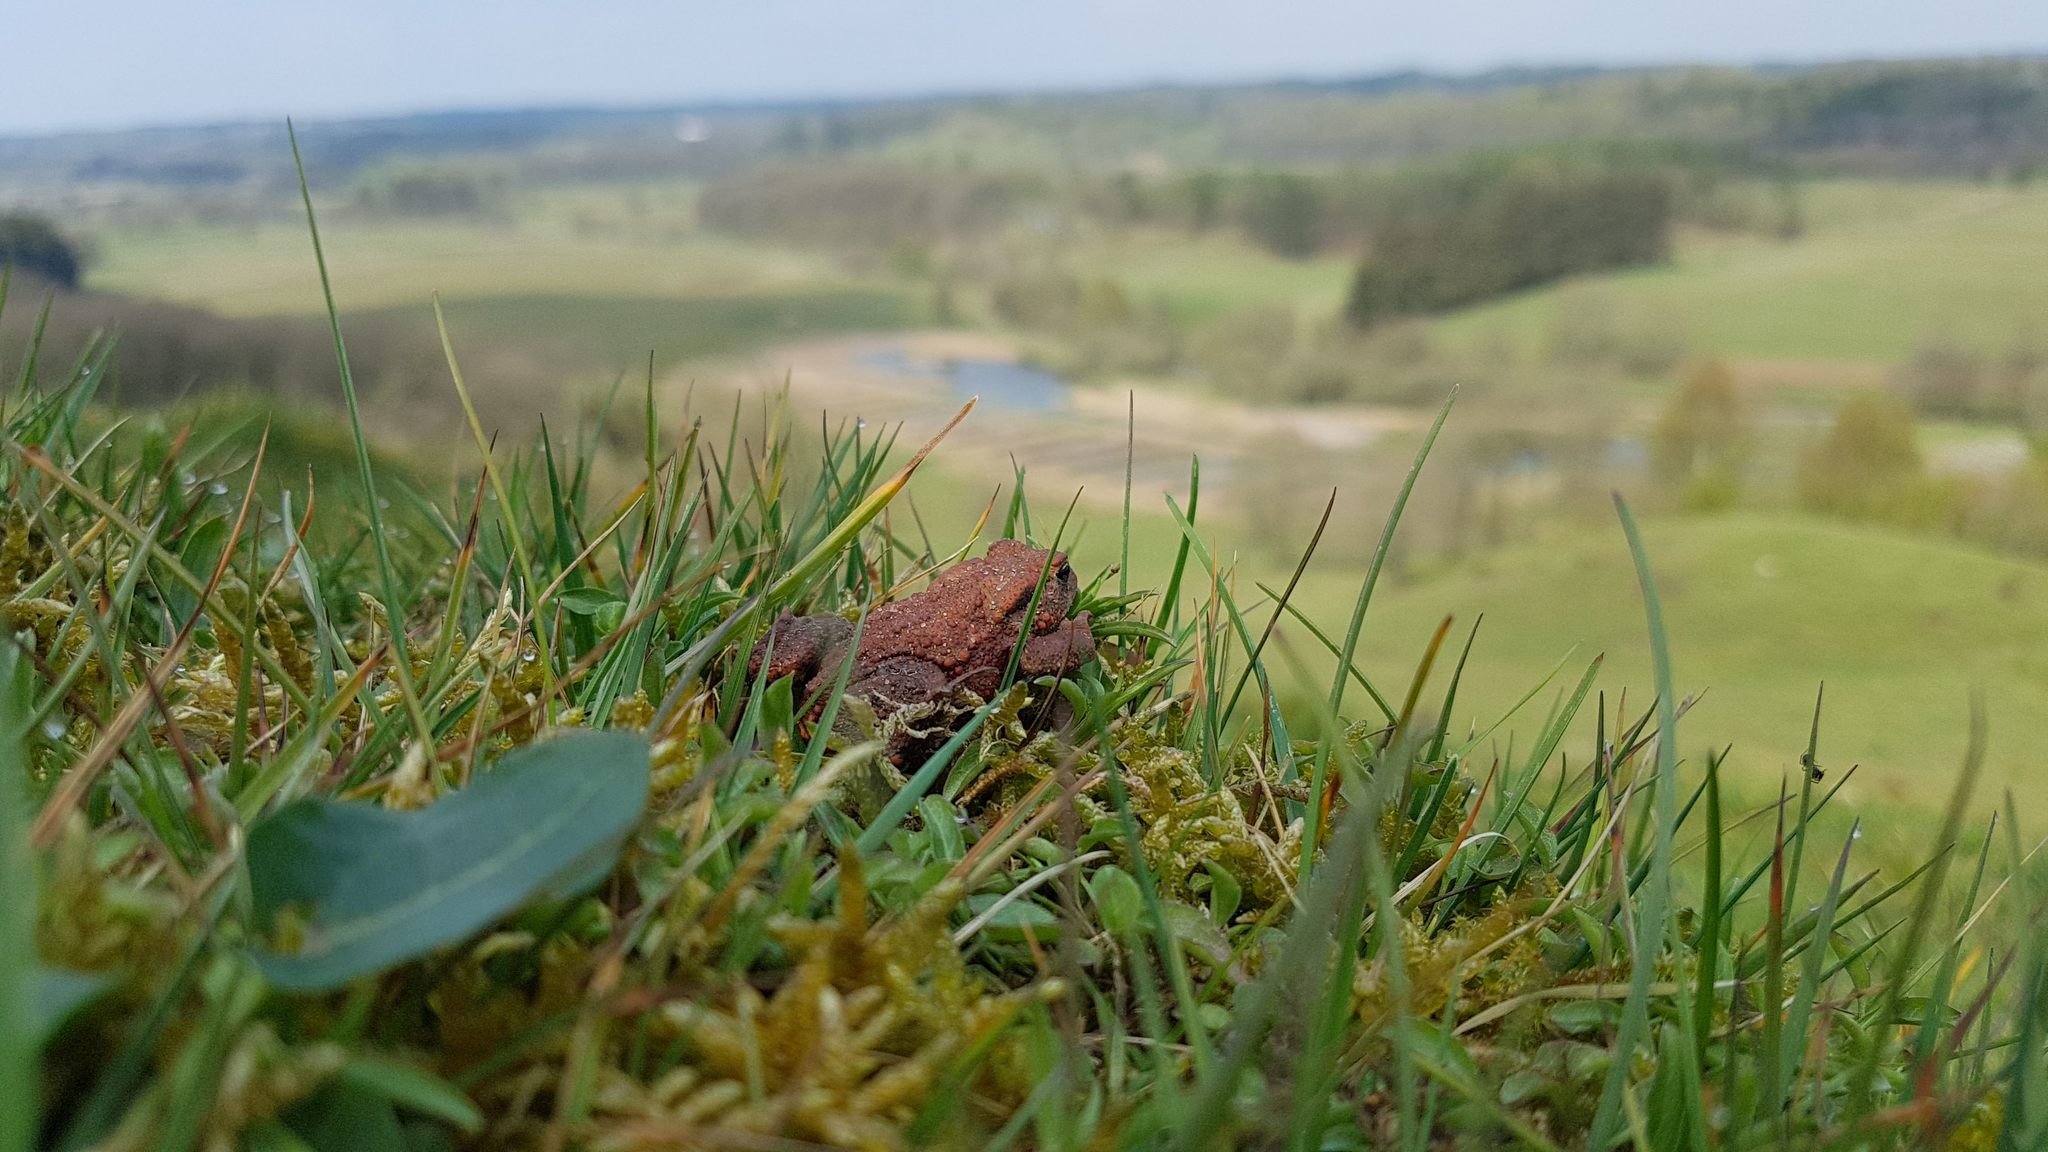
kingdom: Animalia
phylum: Chordata
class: Amphibia
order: Anura
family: Bufonidae
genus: Bufo
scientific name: Bufo bufo
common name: Common toad
